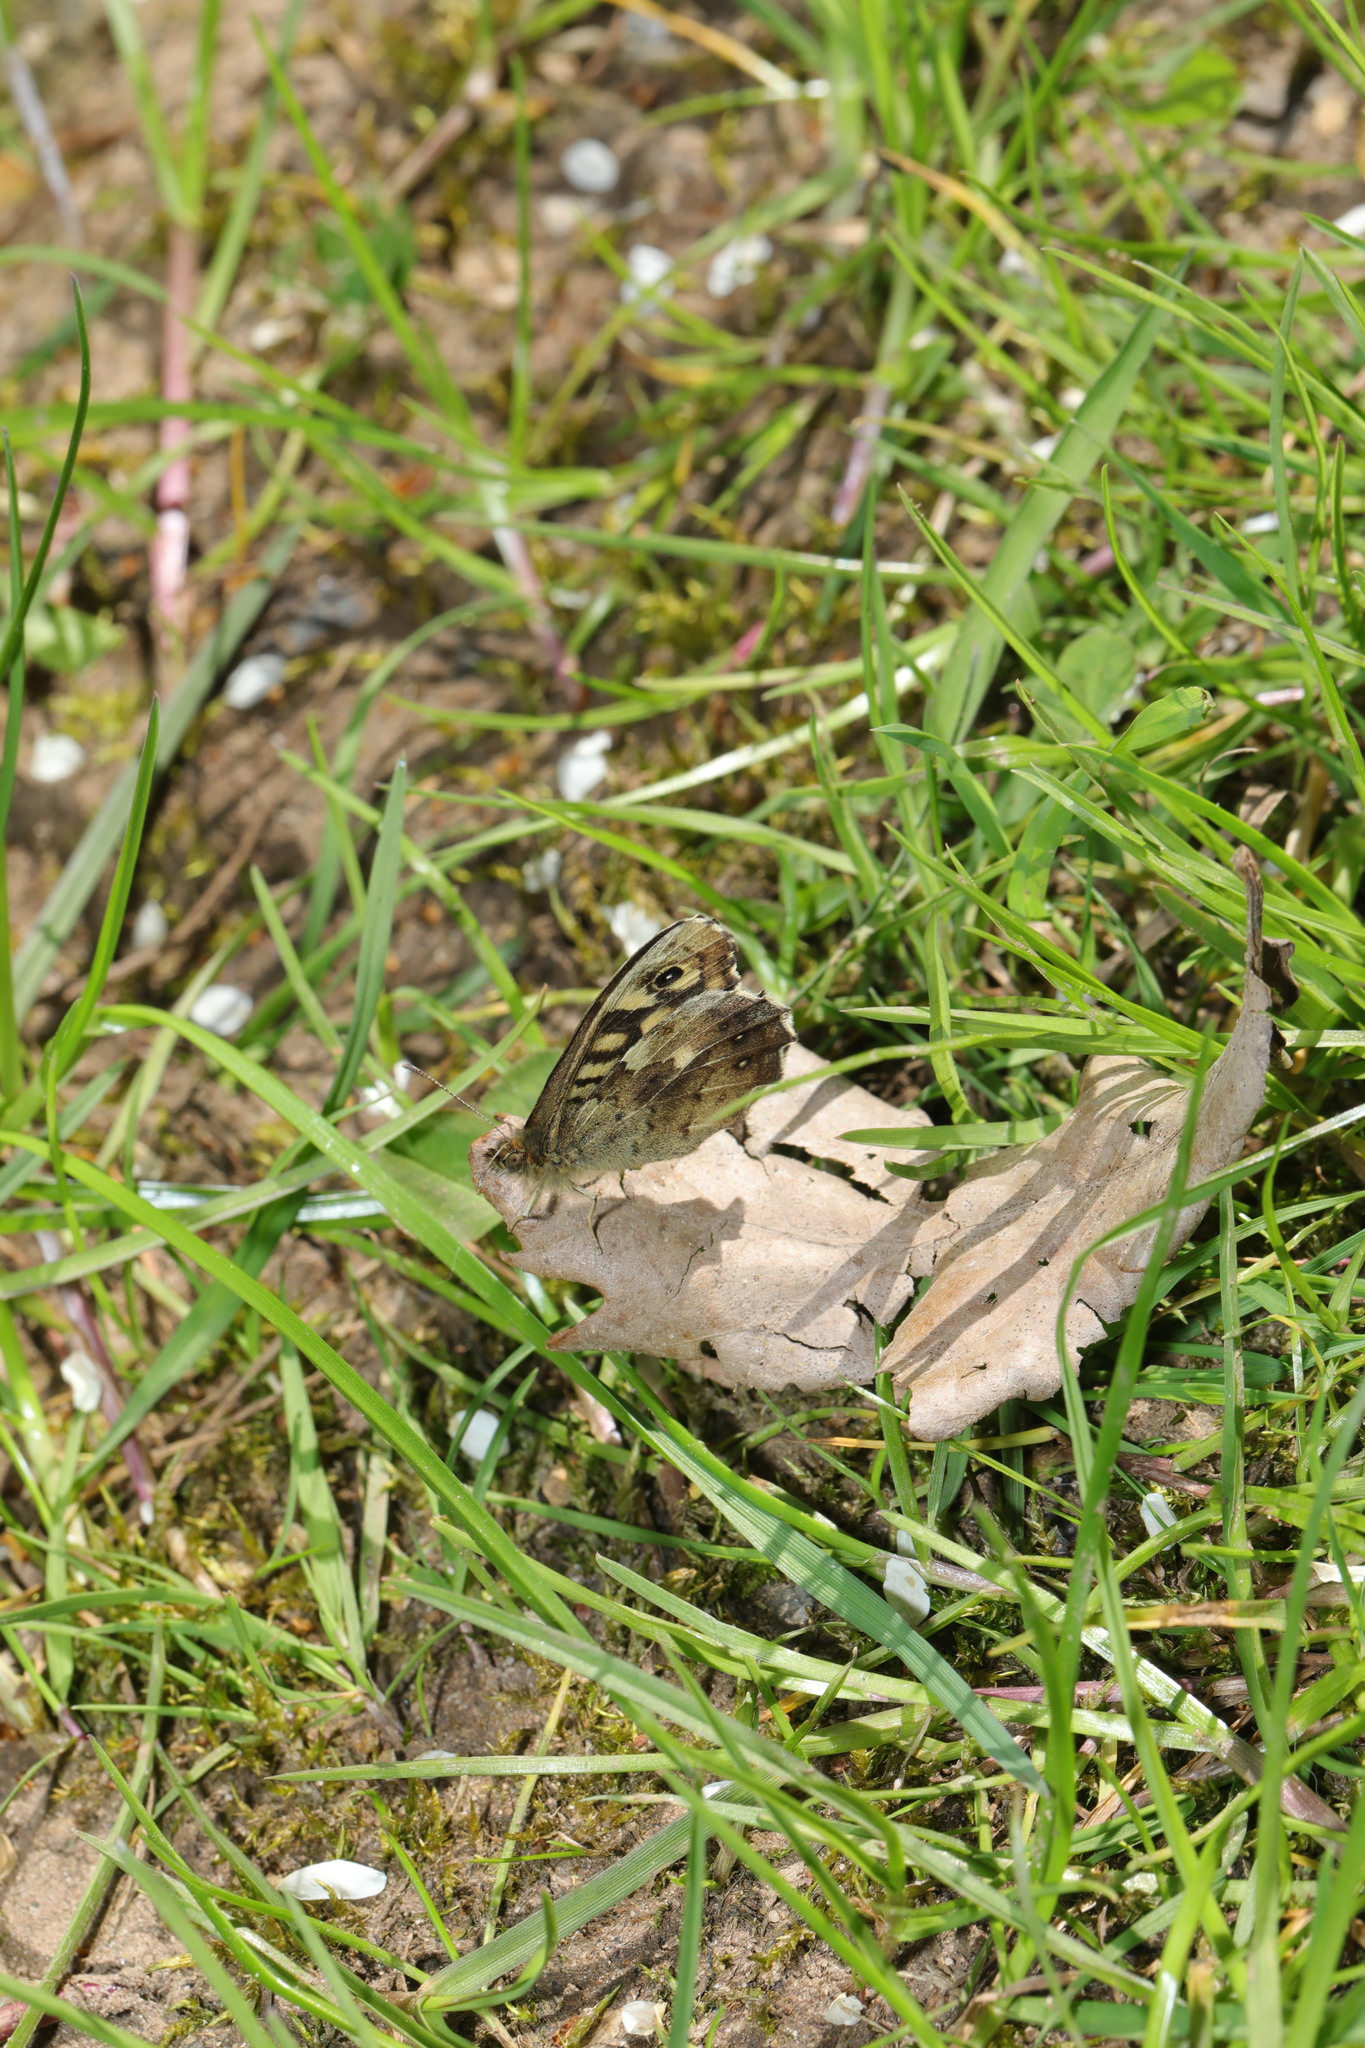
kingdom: Animalia
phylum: Arthropoda
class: Insecta
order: Lepidoptera
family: Nymphalidae
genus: Pararge
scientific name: Pararge aegeria
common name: Speckled wood
